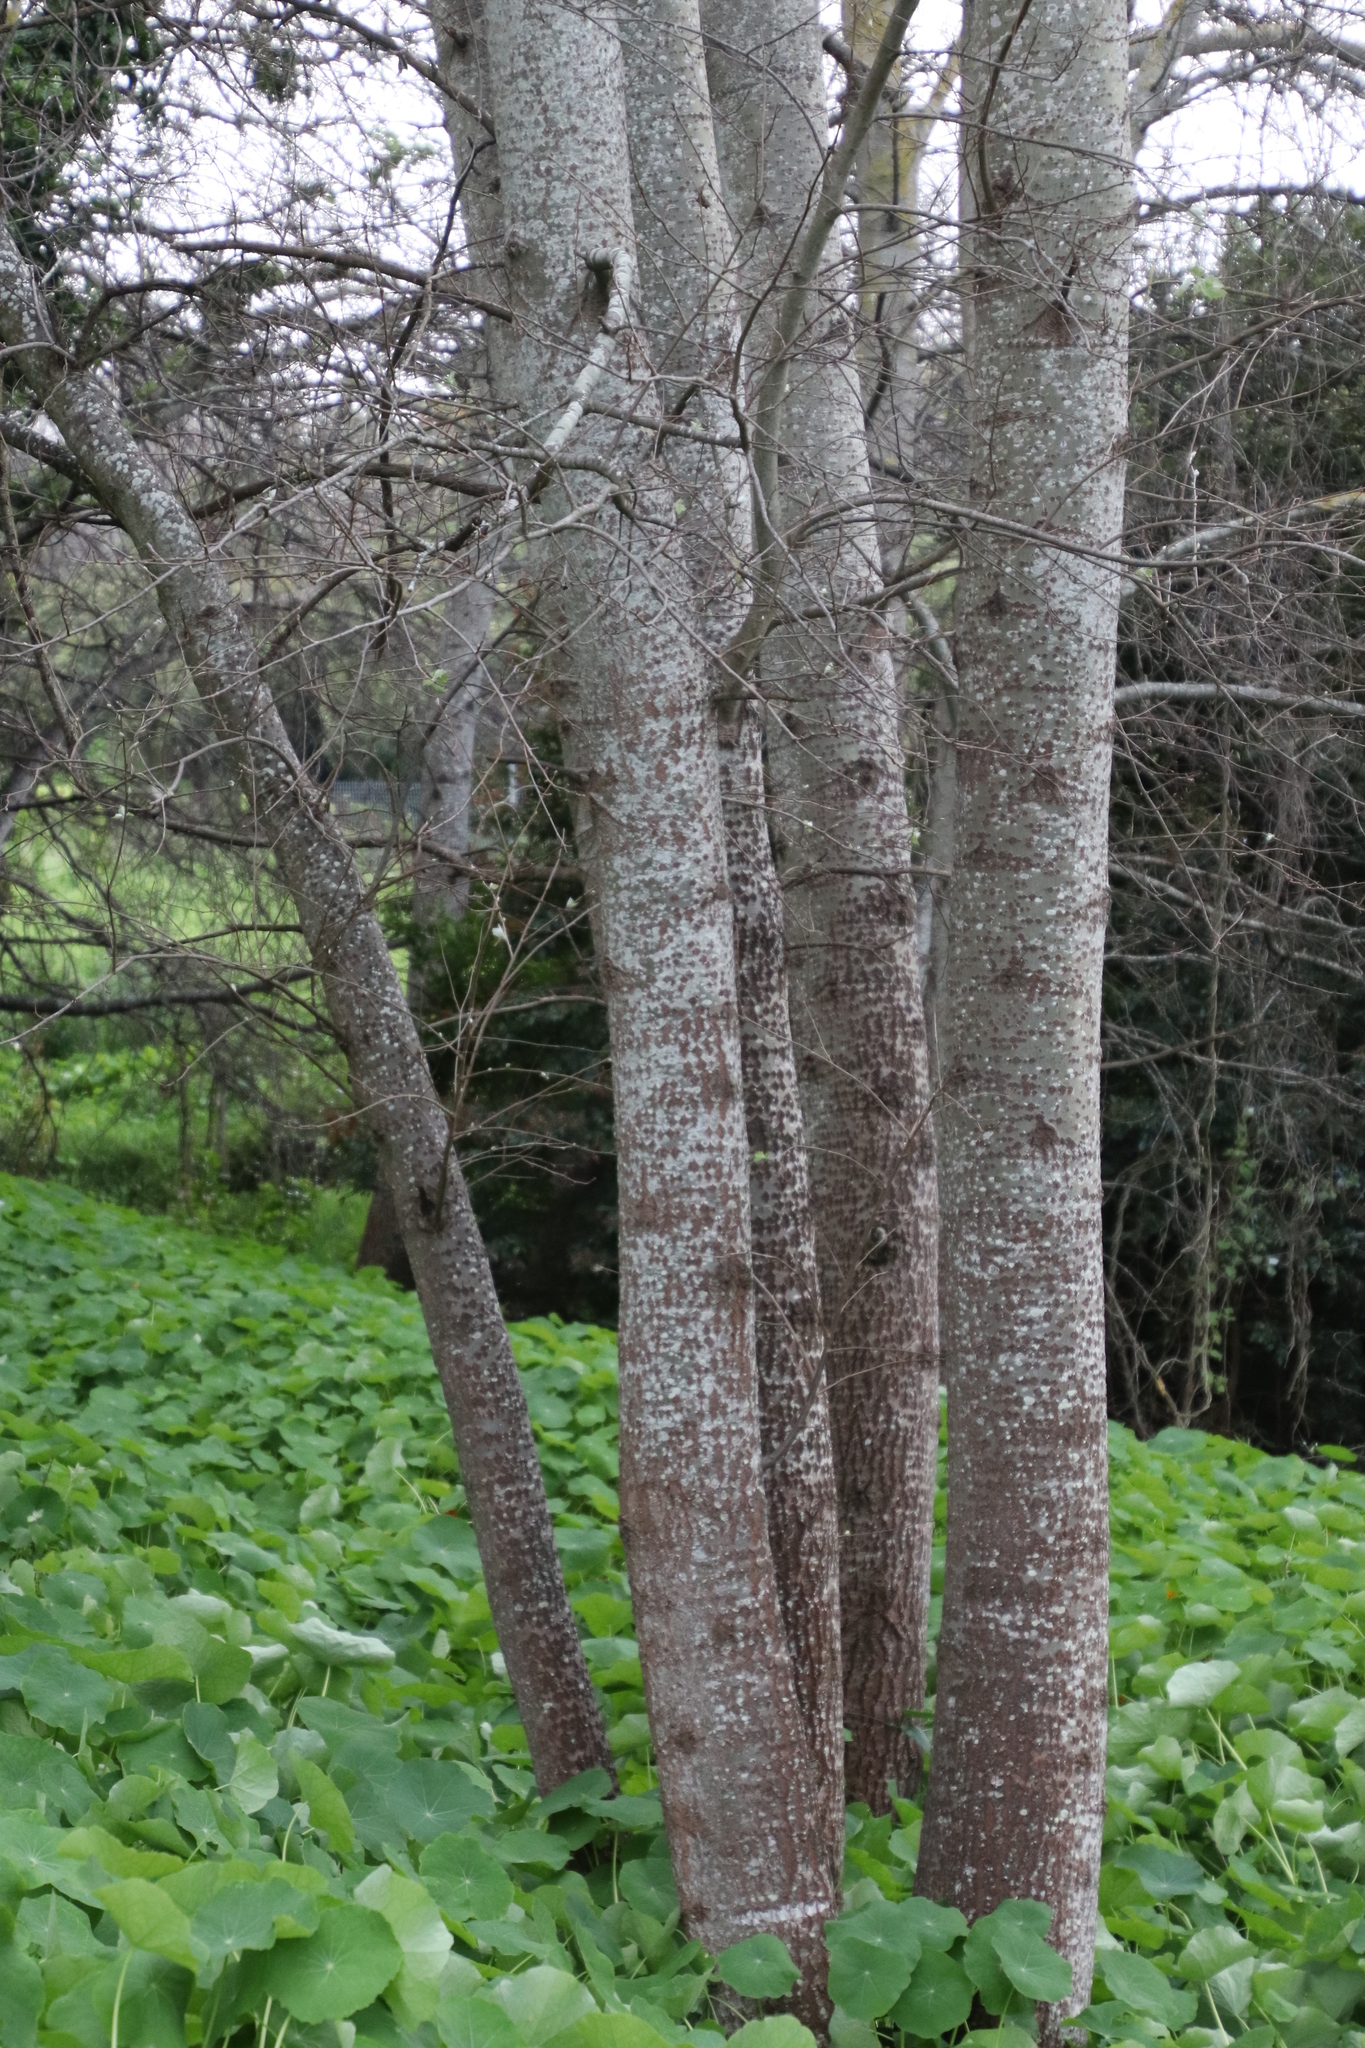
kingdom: Plantae
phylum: Tracheophyta
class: Magnoliopsida
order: Malpighiales
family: Salicaceae
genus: Populus
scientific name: Populus canescens
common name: Gray poplar
